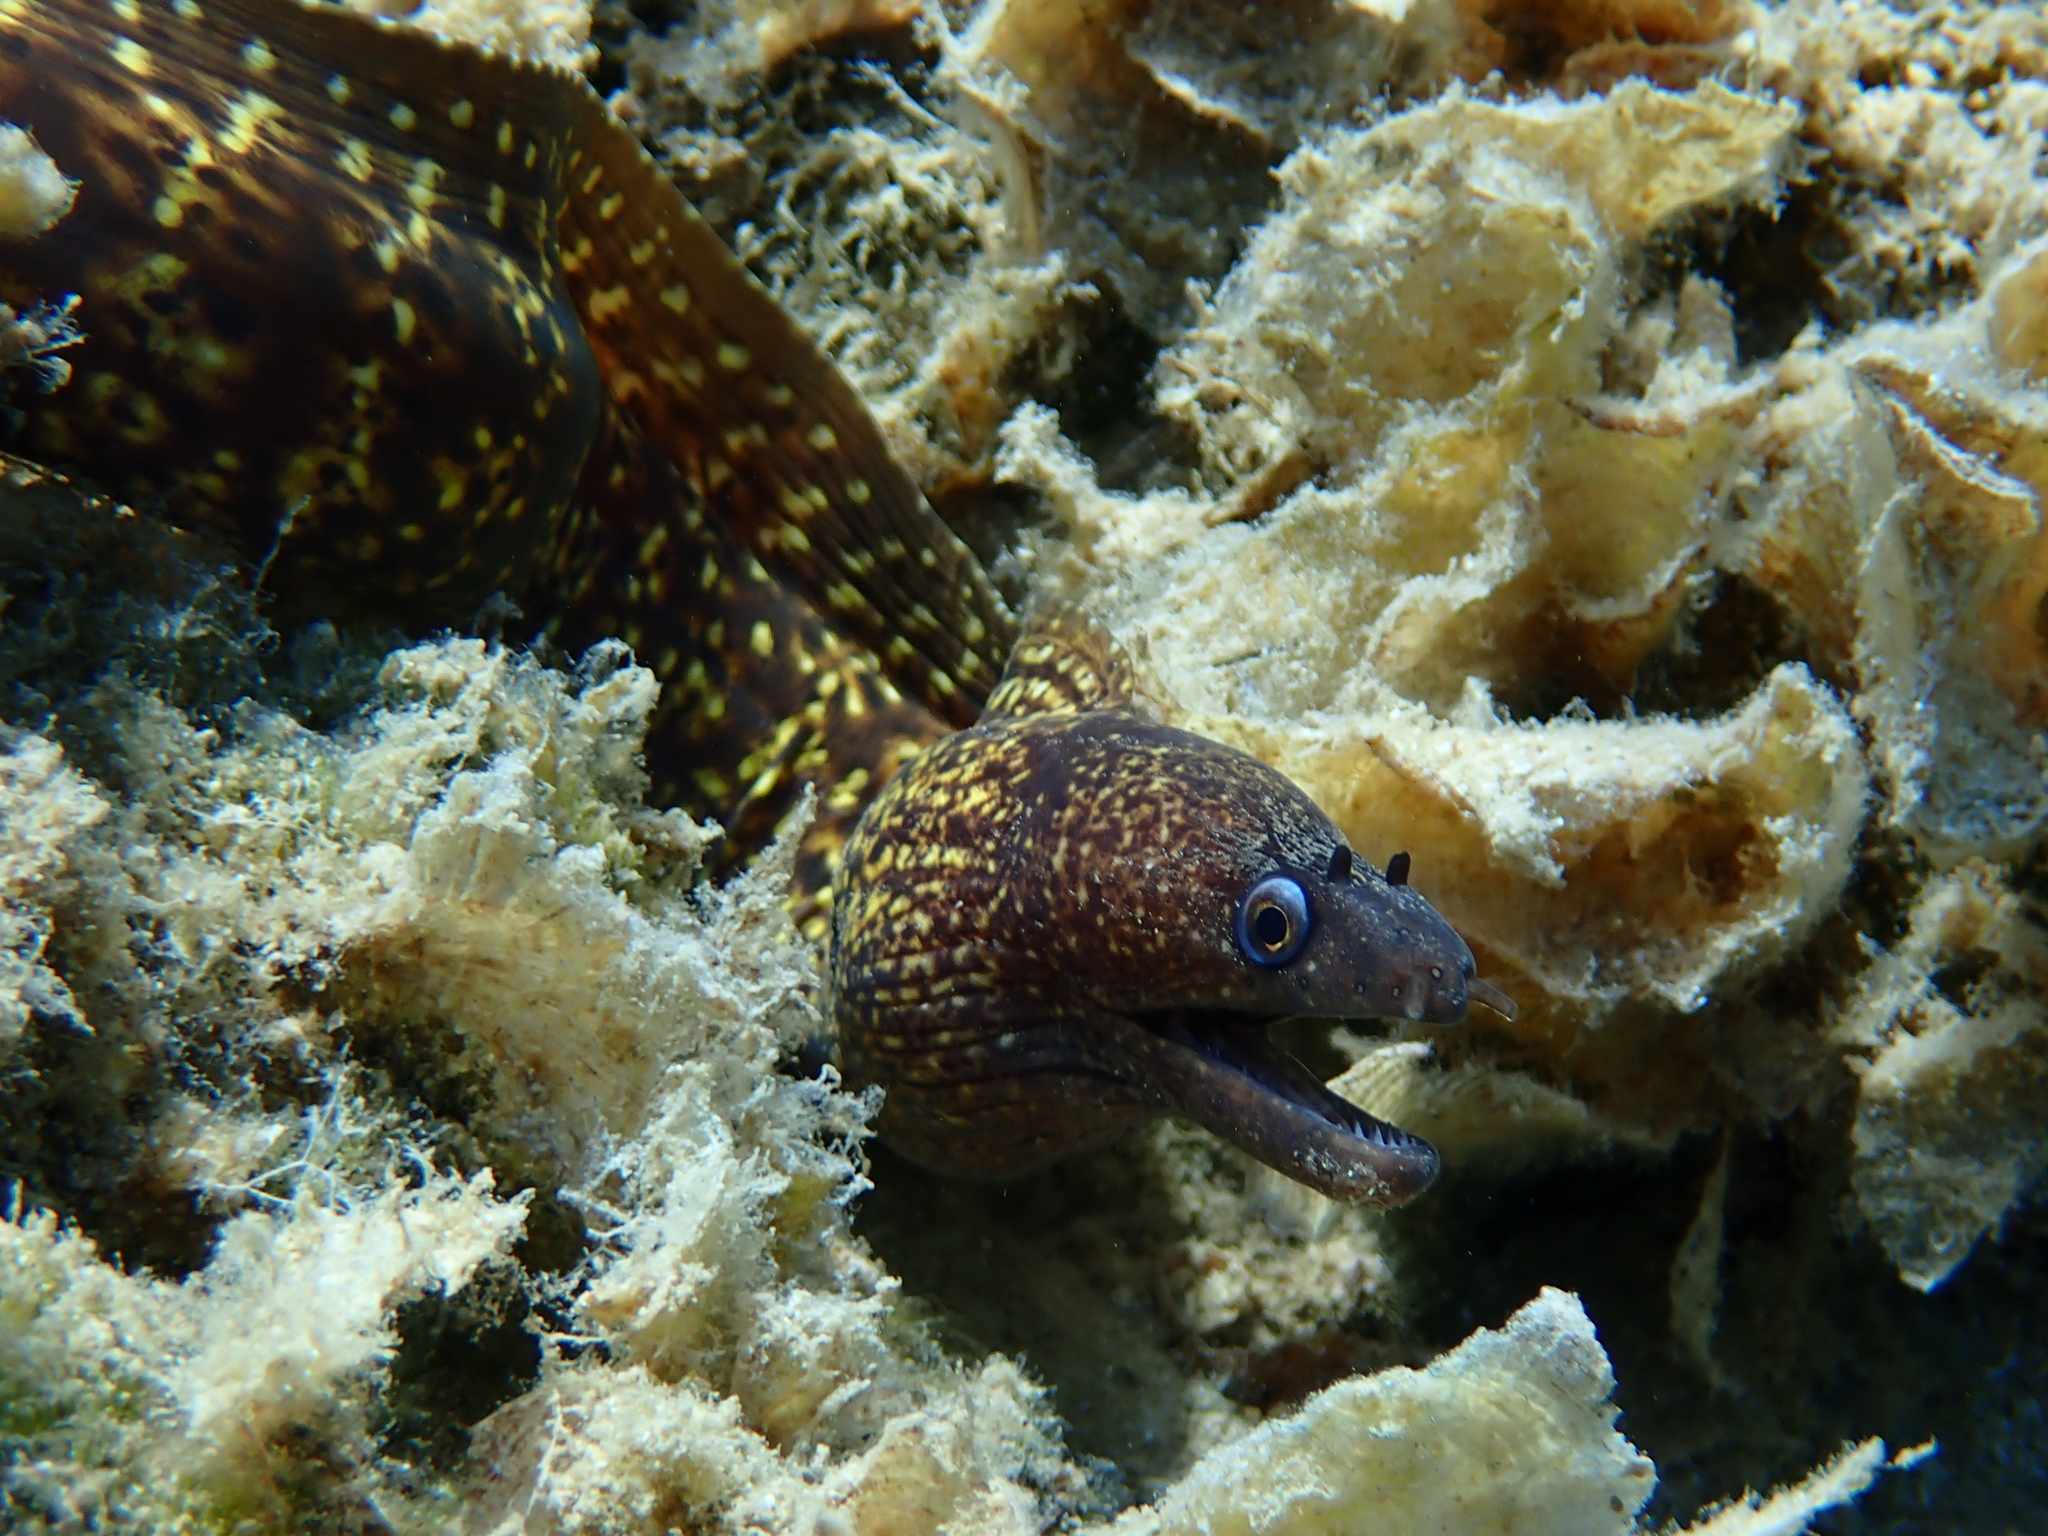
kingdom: Animalia
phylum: Chordata
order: Anguilliformes
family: Muraenidae
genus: Muraena
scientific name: Muraena helena
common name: Mediterranean moray
